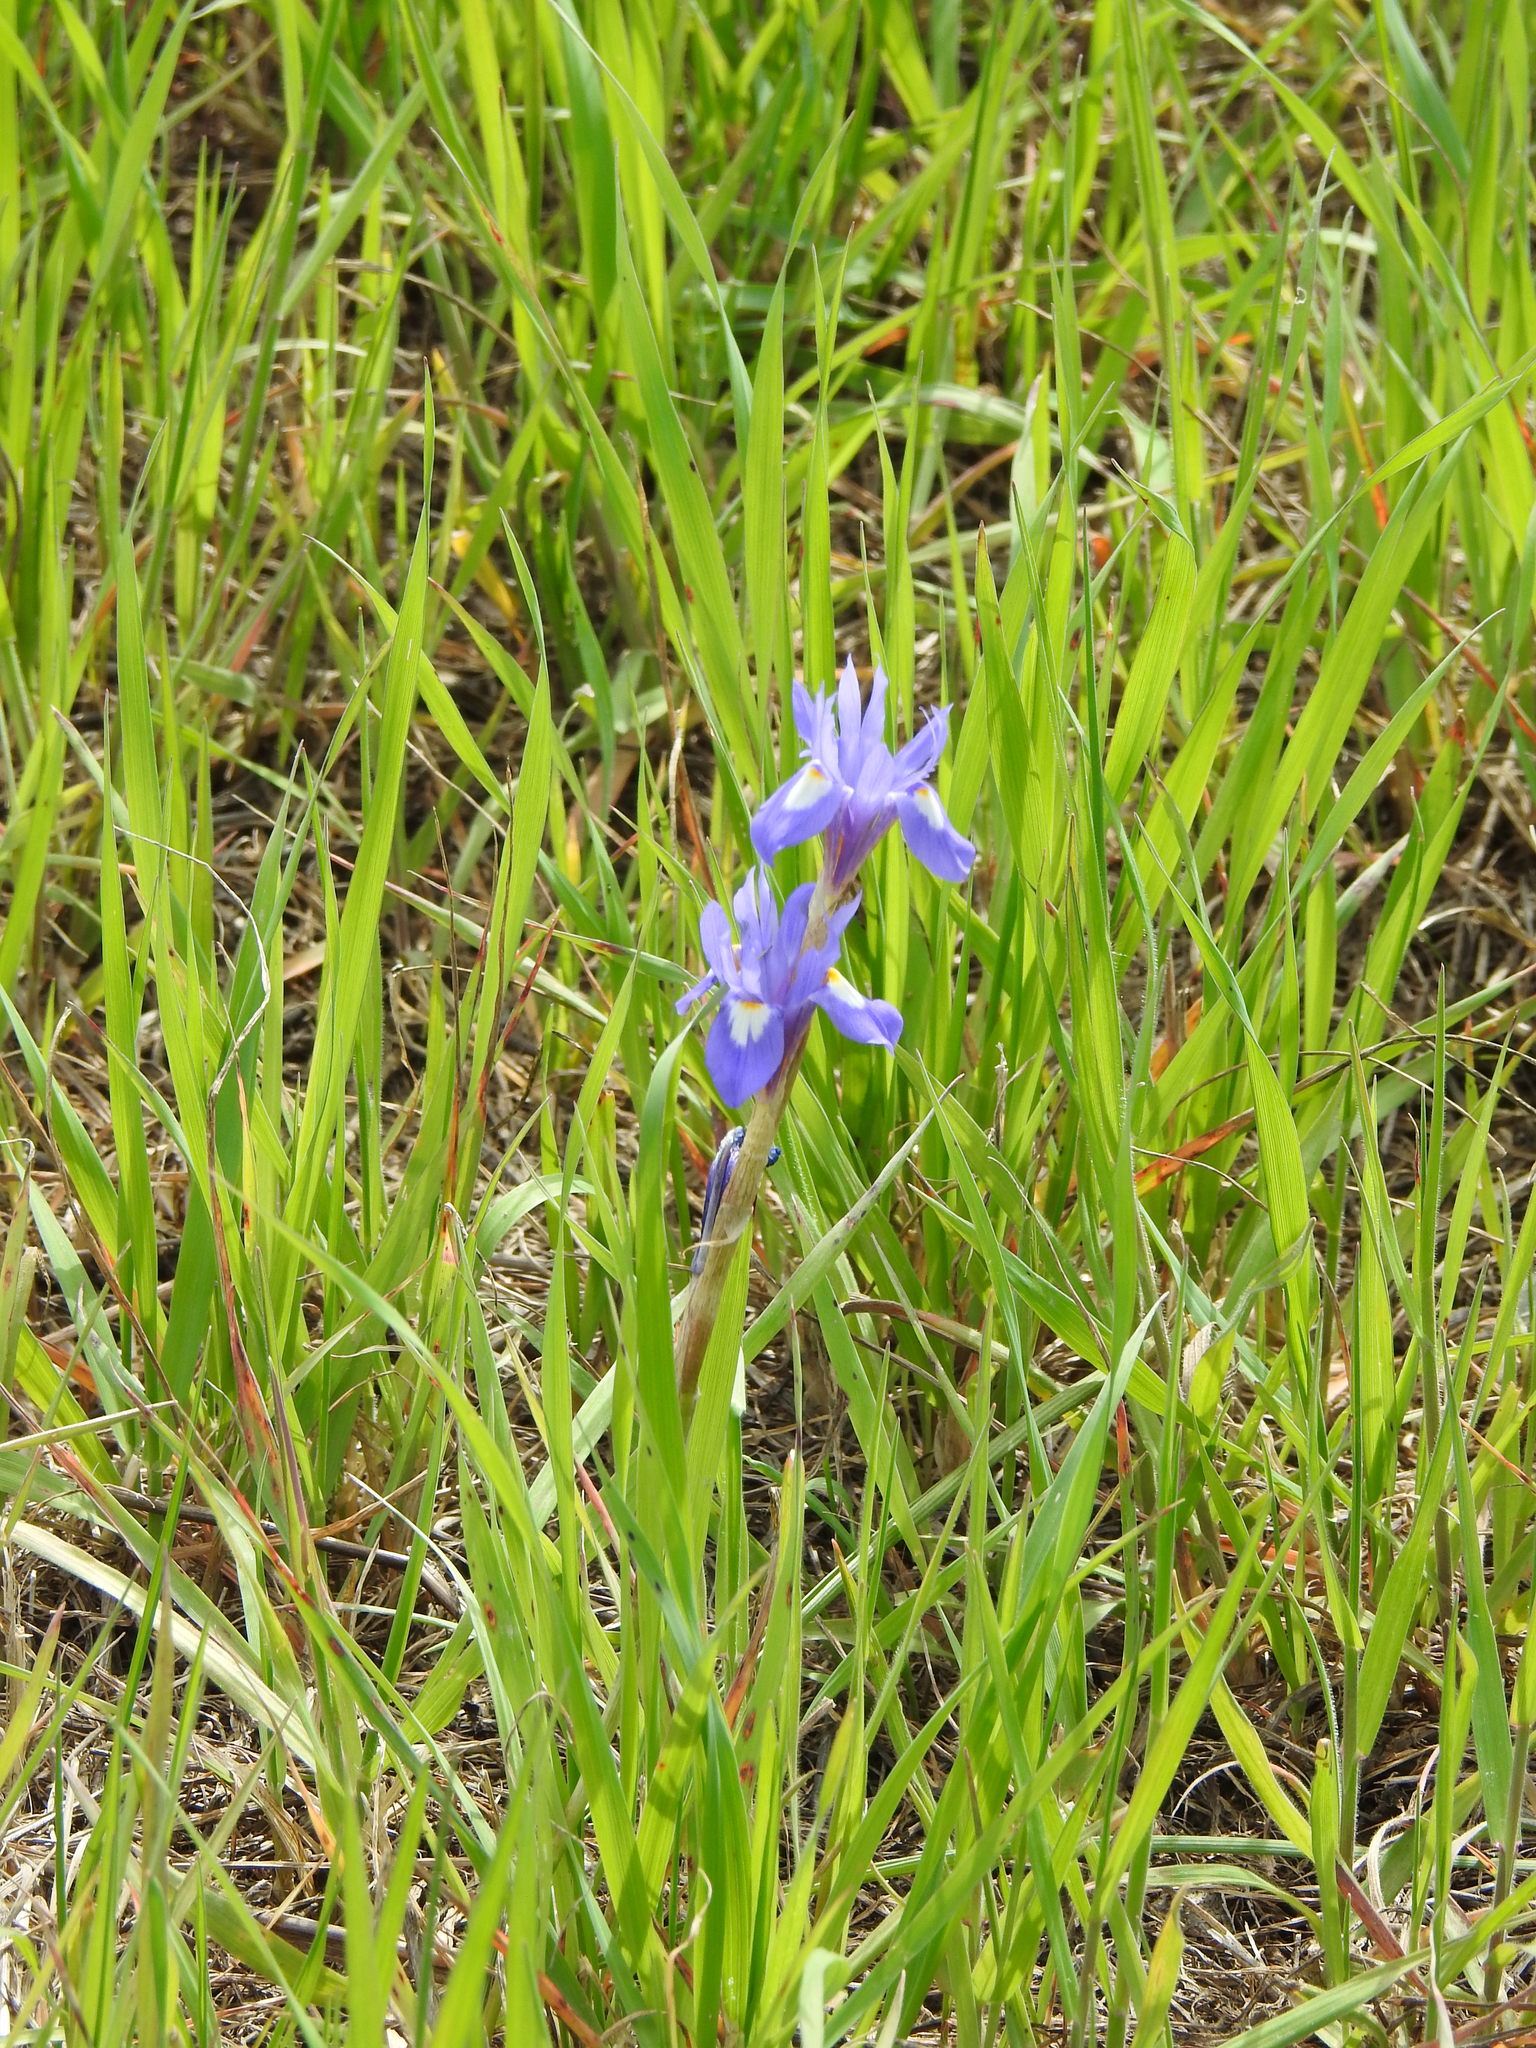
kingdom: Plantae
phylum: Tracheophyta
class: Liliopsida
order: Asparagales
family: Iridaceae
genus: Moraea
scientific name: Moraea sisyrinchium
